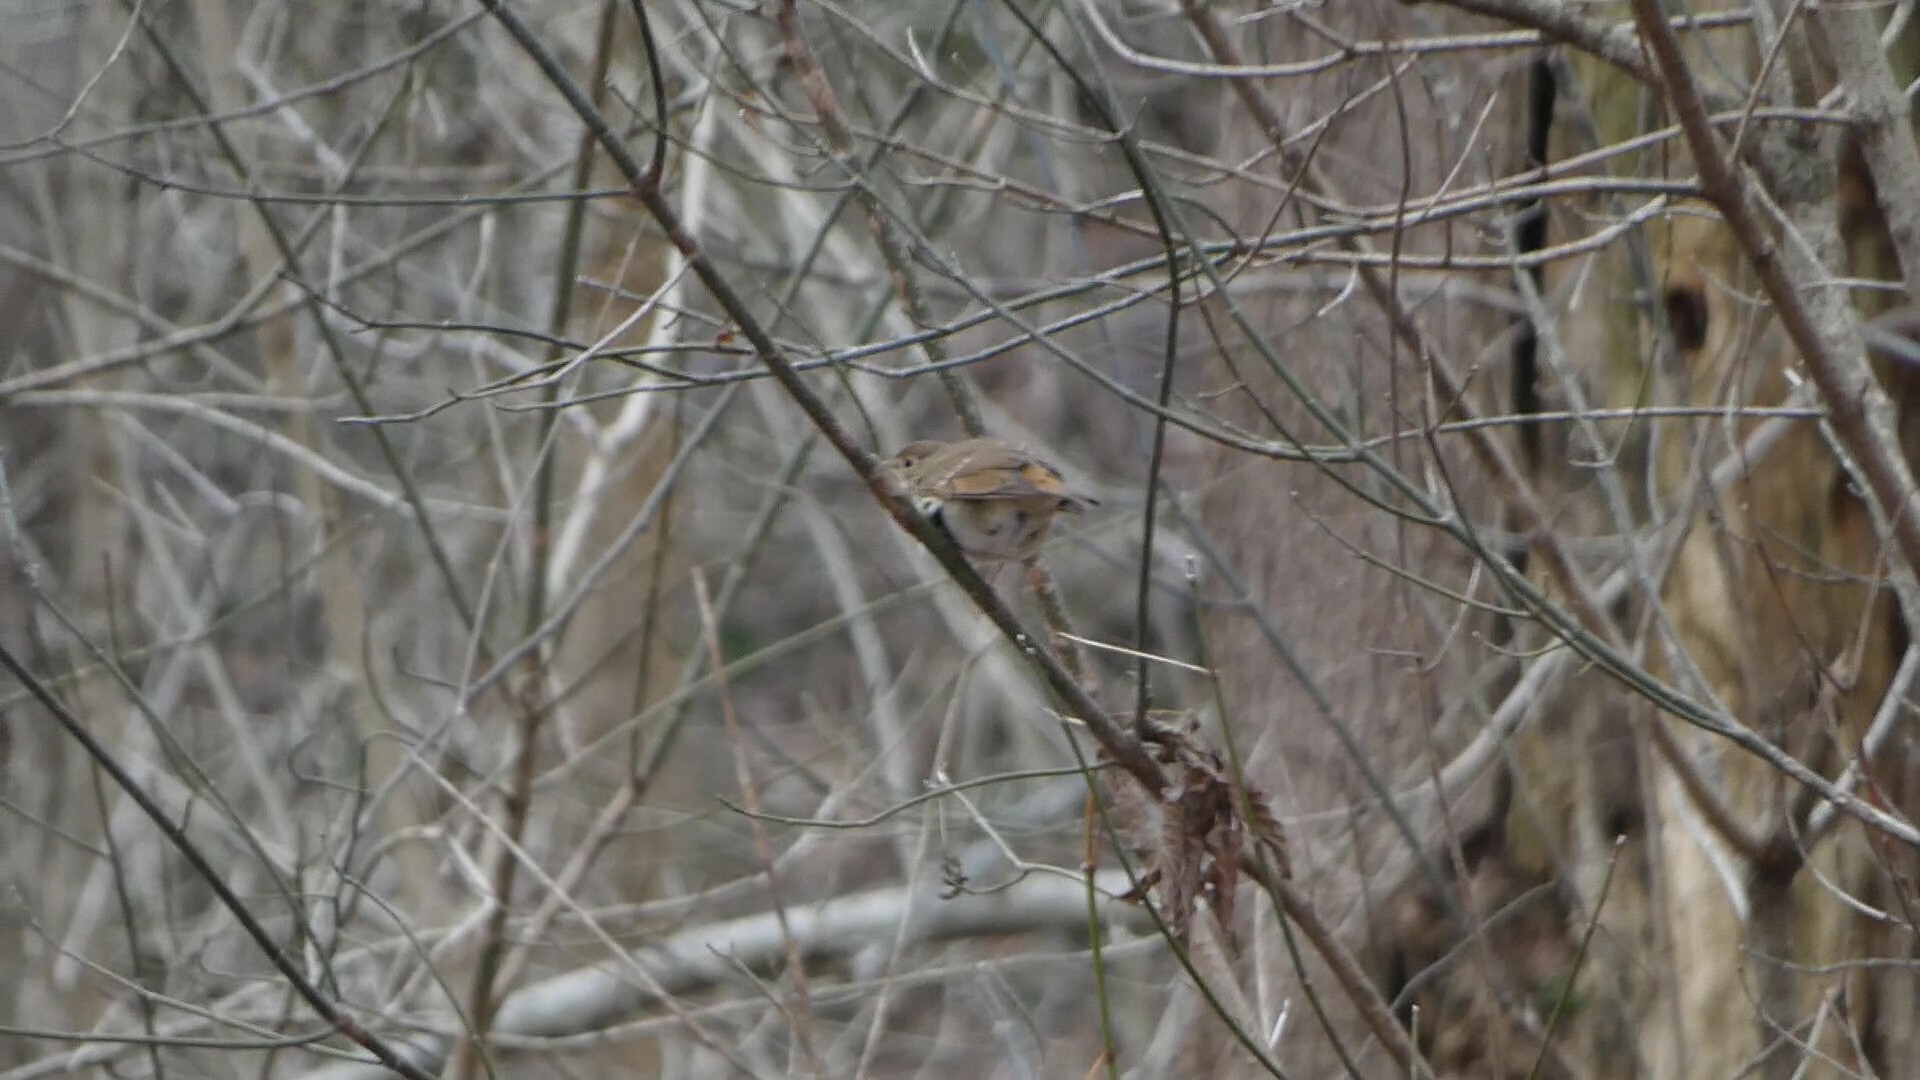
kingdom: Animalia
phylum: Chordata
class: Aves
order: Passeriformes
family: Turdidae
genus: Catharus
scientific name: Catharus guttatus
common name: Hermit thrush
